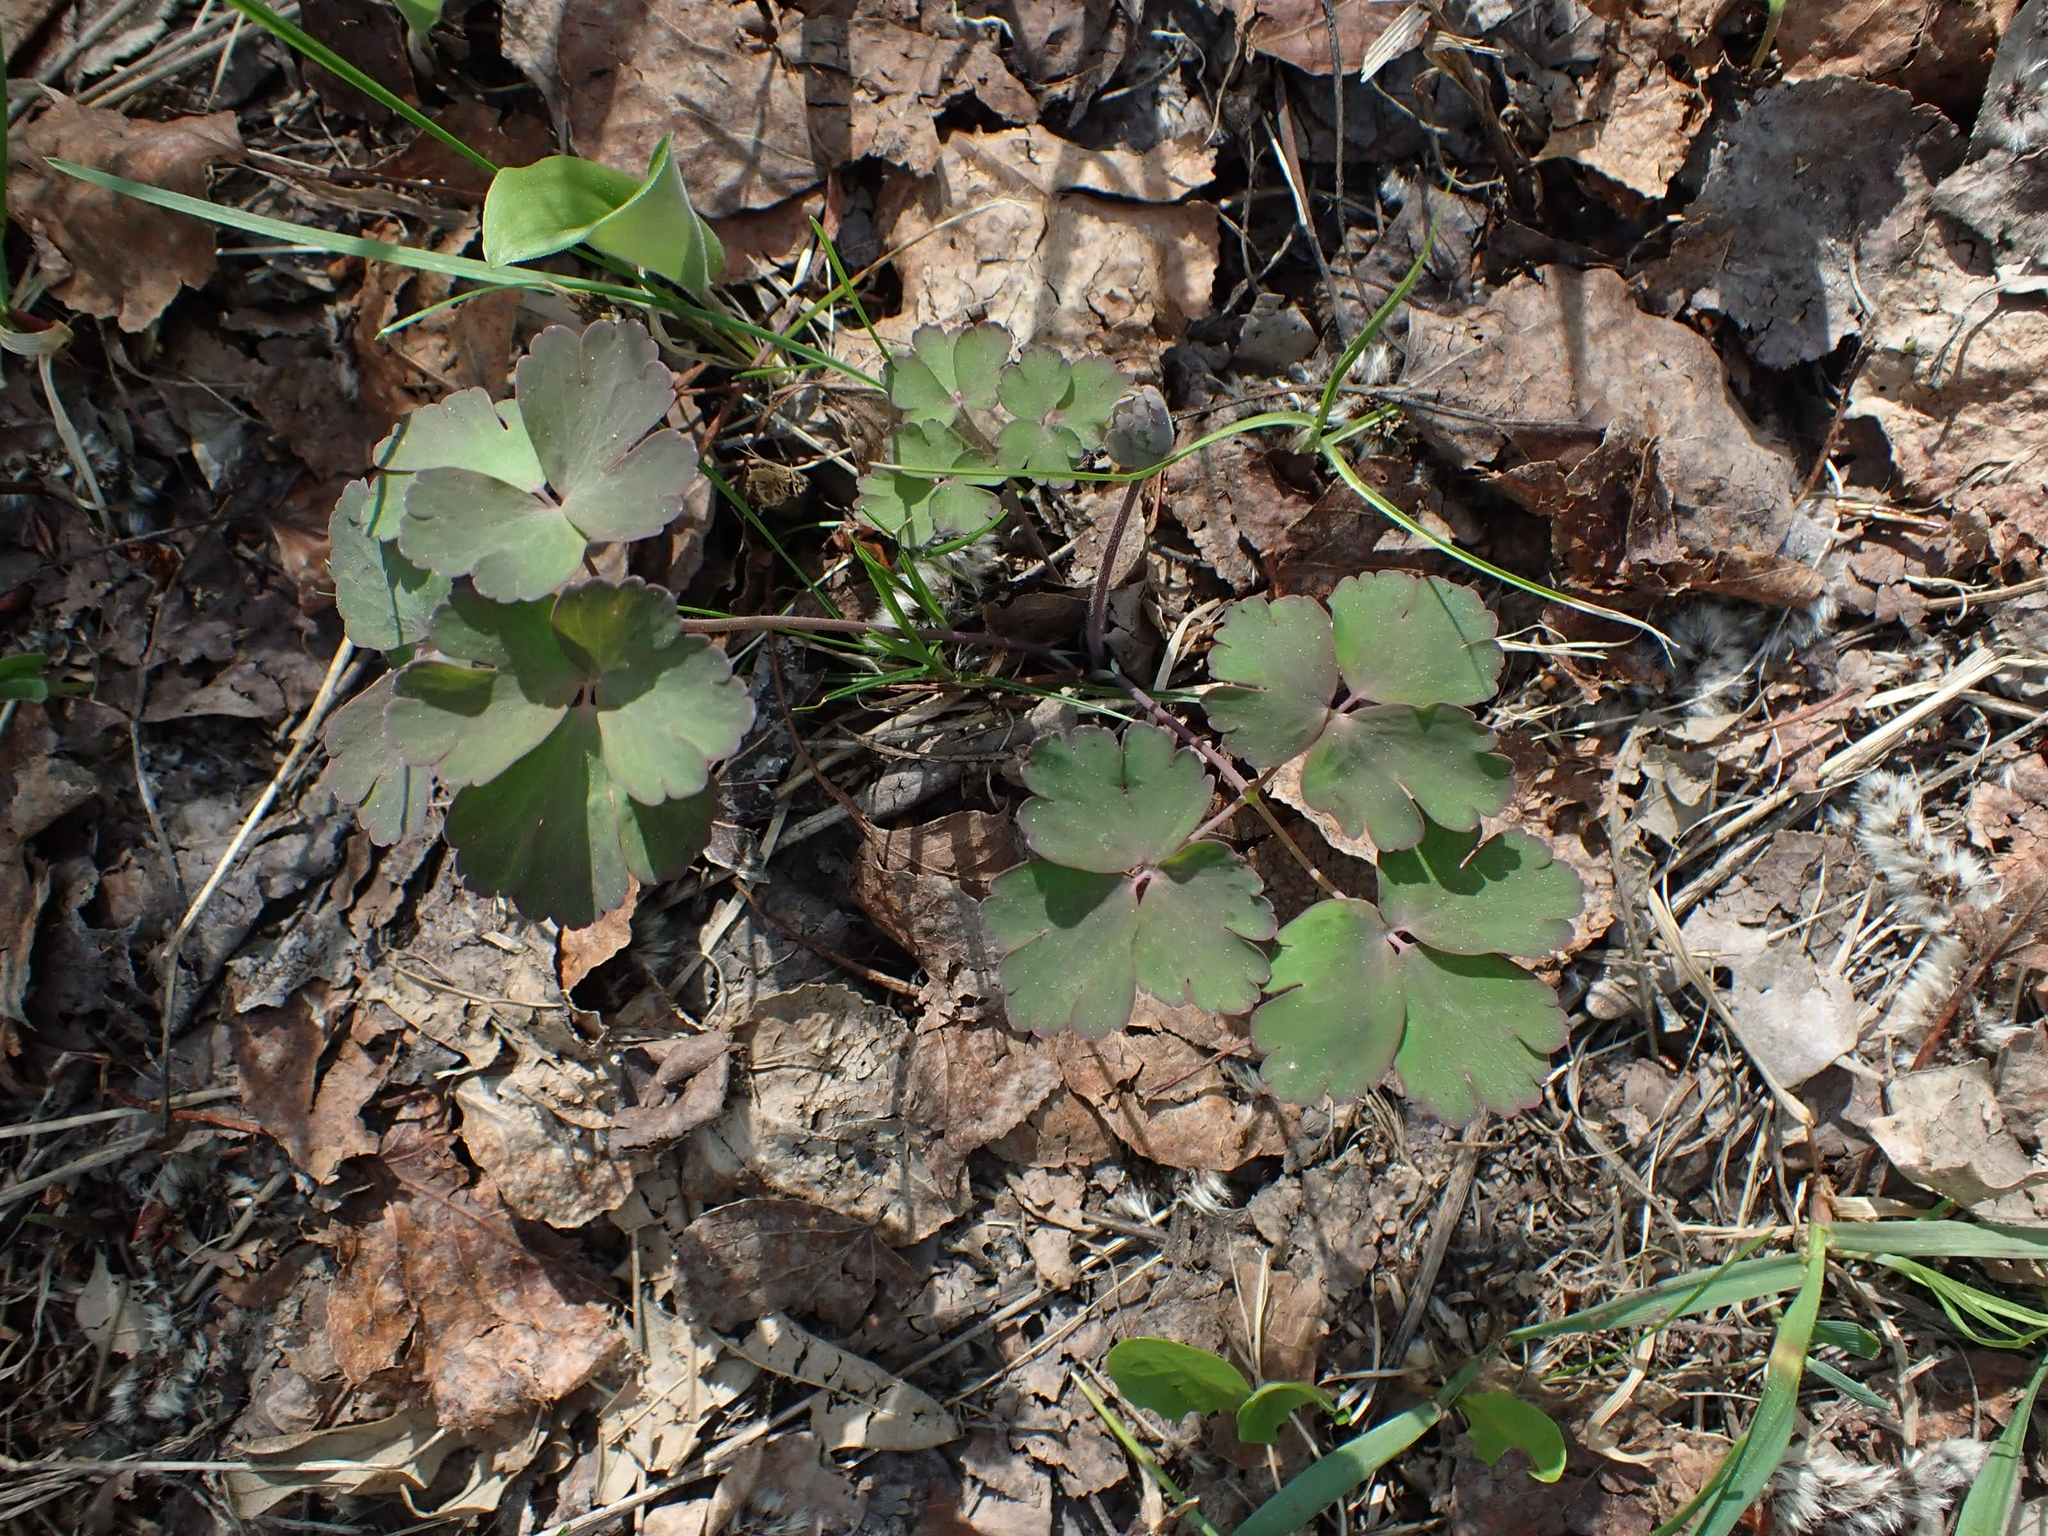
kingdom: Plantae
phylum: Tracheophyta
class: Magnoliopsida
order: Ranunculales
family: Ranunculaceae
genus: Aquilegia
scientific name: Aquilegia canadensis
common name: American columbine
